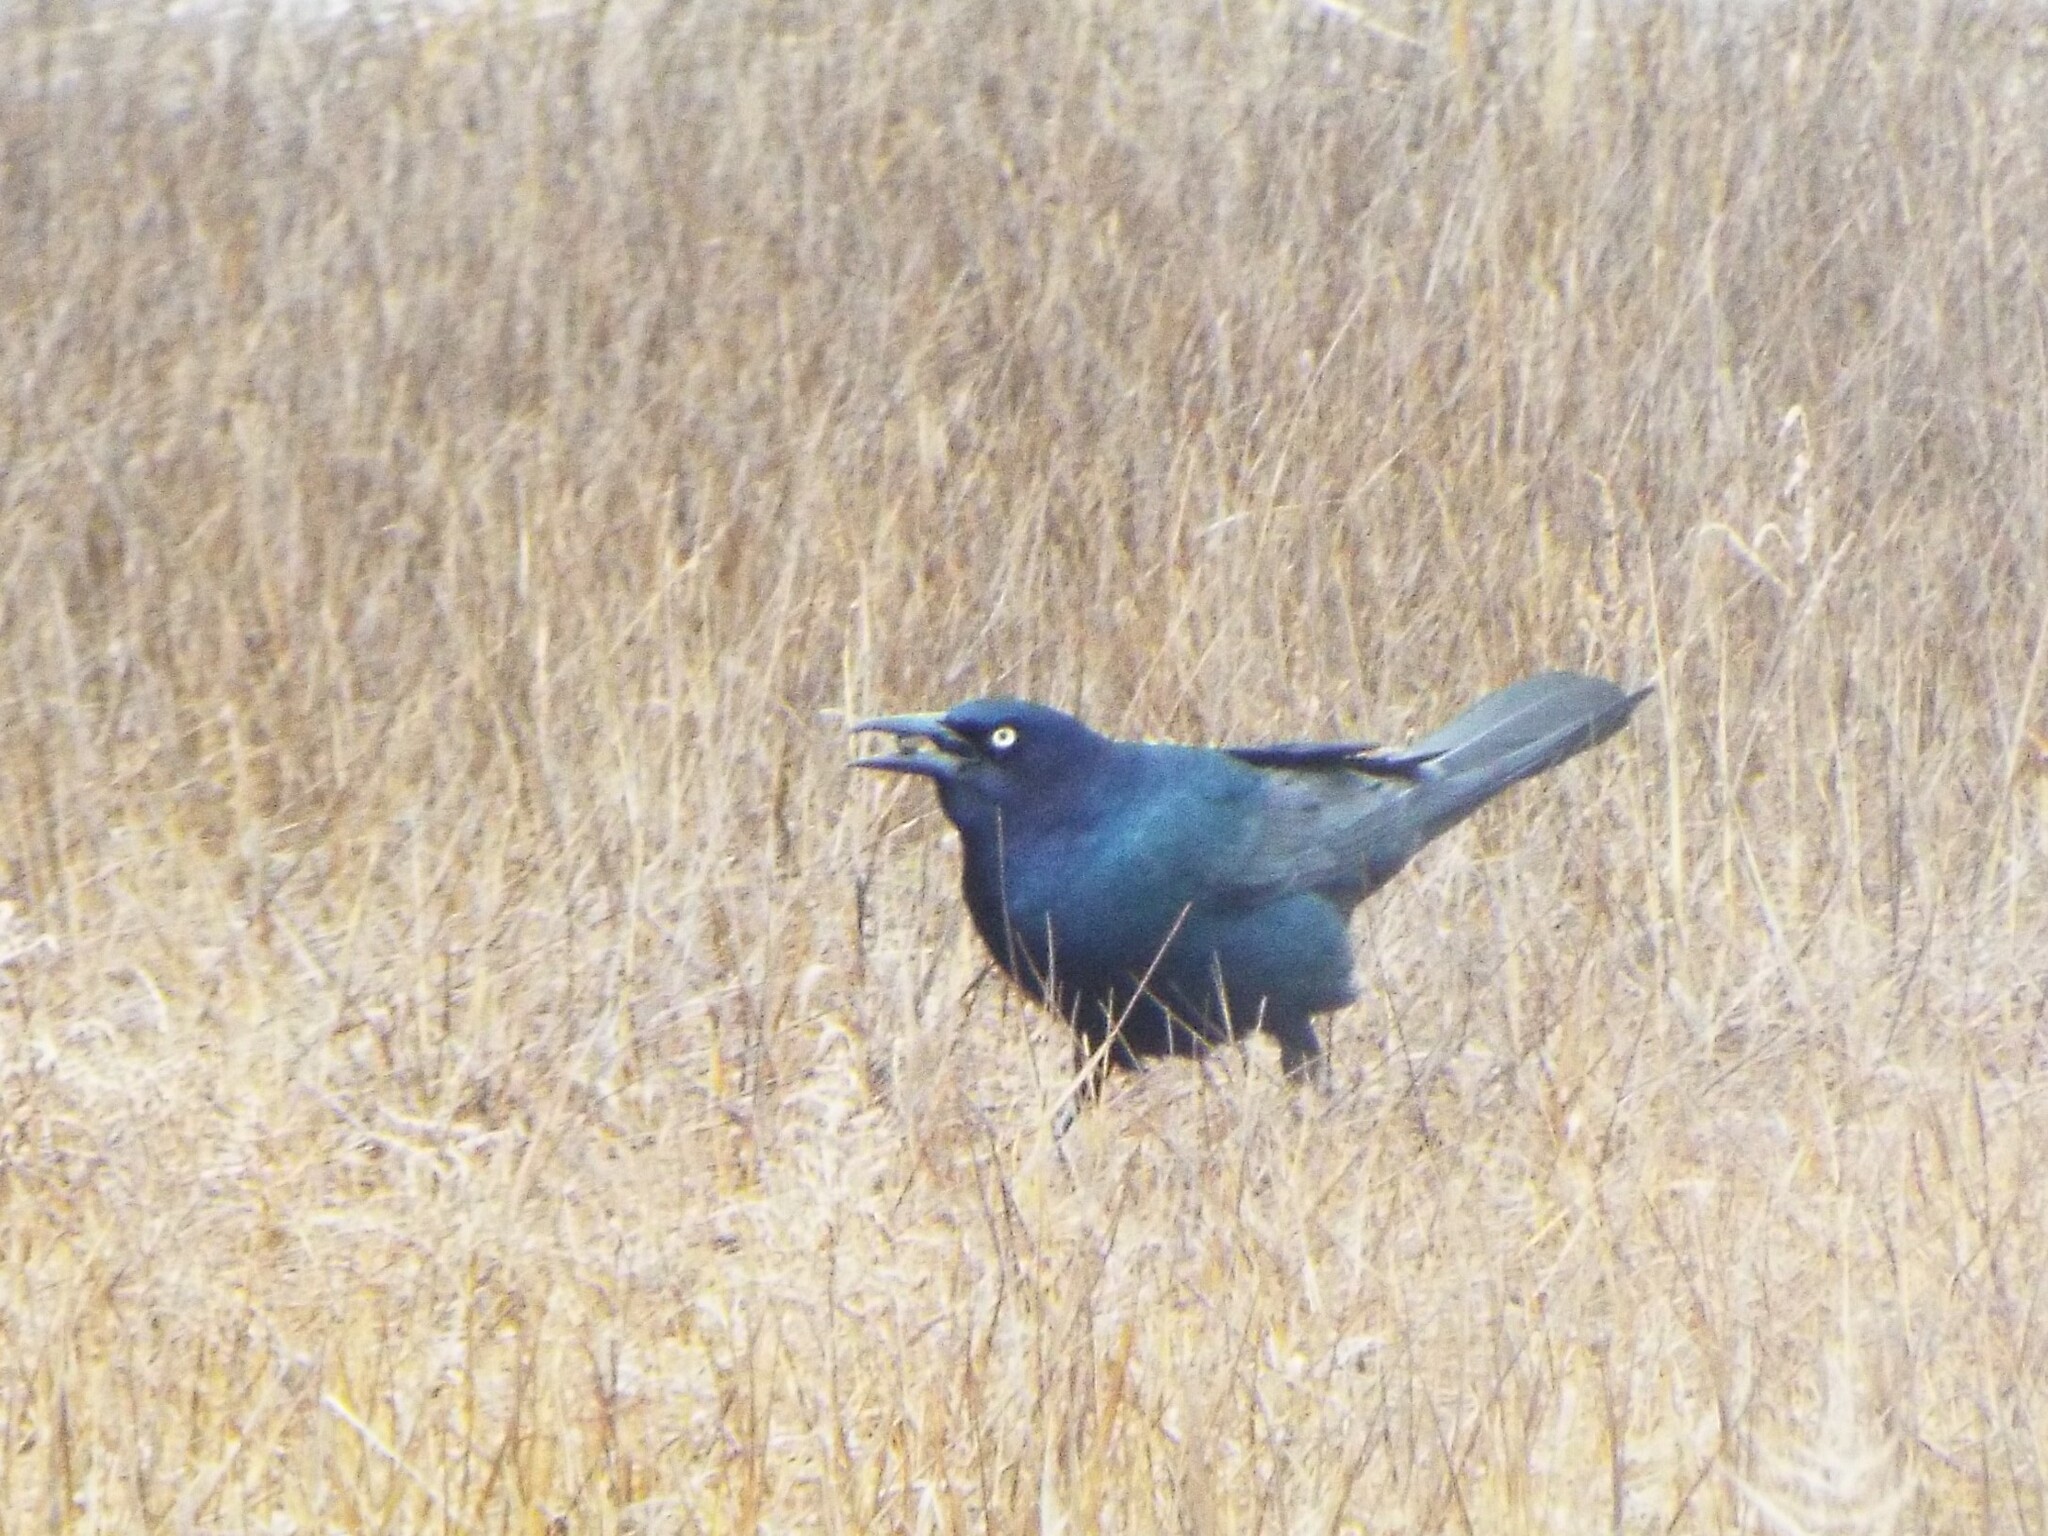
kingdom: Animalia
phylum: Chordata
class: Aves
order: Passeriformes
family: Icteridae
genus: Quiscalus
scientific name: Quiscalus major
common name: Boat-tailed grackle
